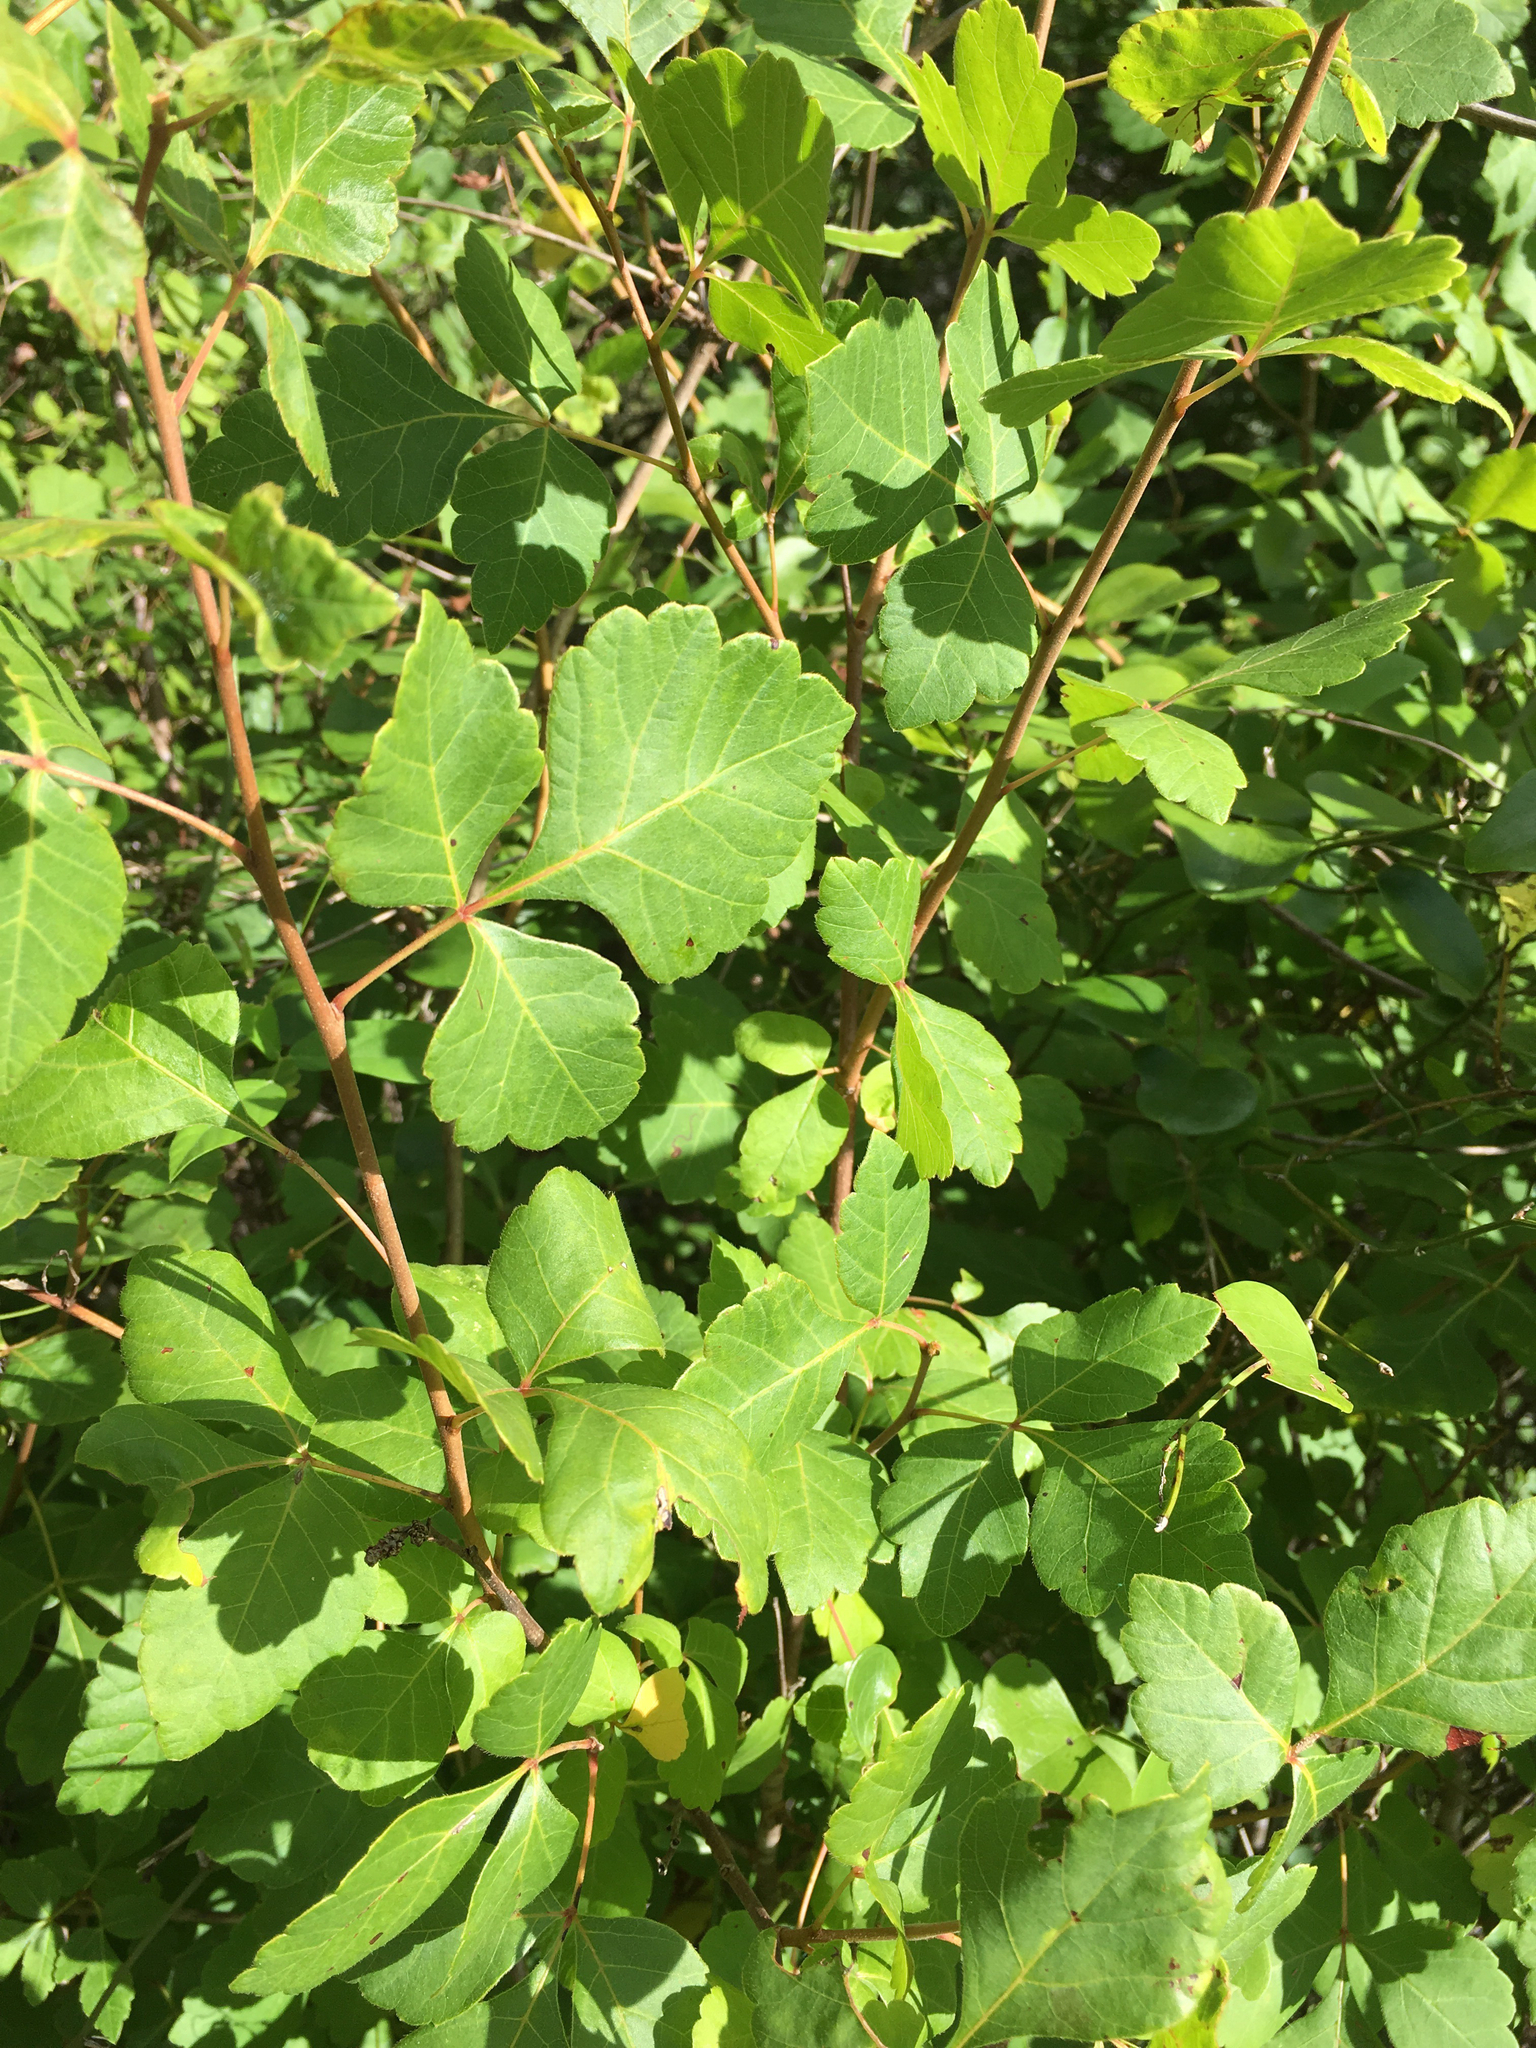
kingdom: Plantae
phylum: Tracheophyta
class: Magnoliopsida
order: Sapindales
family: Anacardiaceae
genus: Rhus
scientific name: Rhus aromatica
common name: Aromatic sumac
